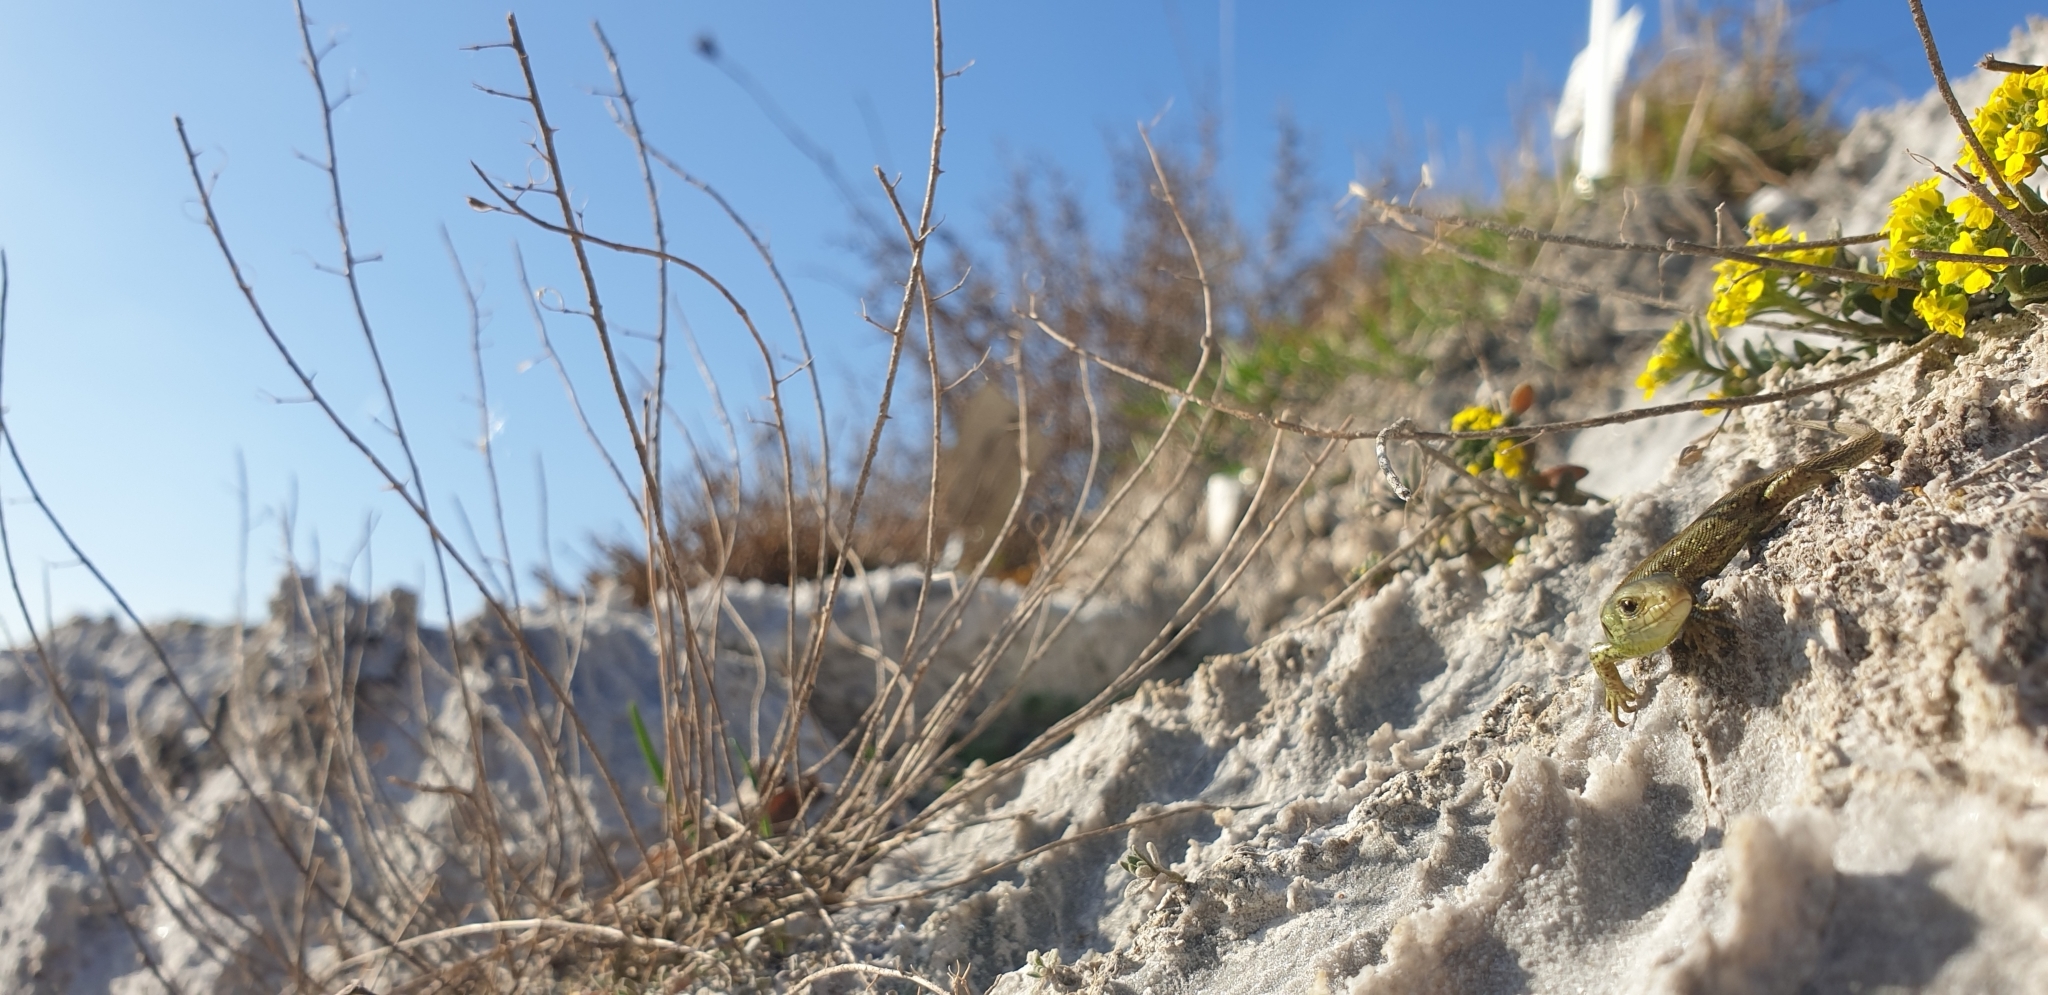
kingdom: Animalia
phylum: Chordata
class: Squamata
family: Lacertidae
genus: Lacerta
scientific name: Lacerta agilis
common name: Sand lizard
